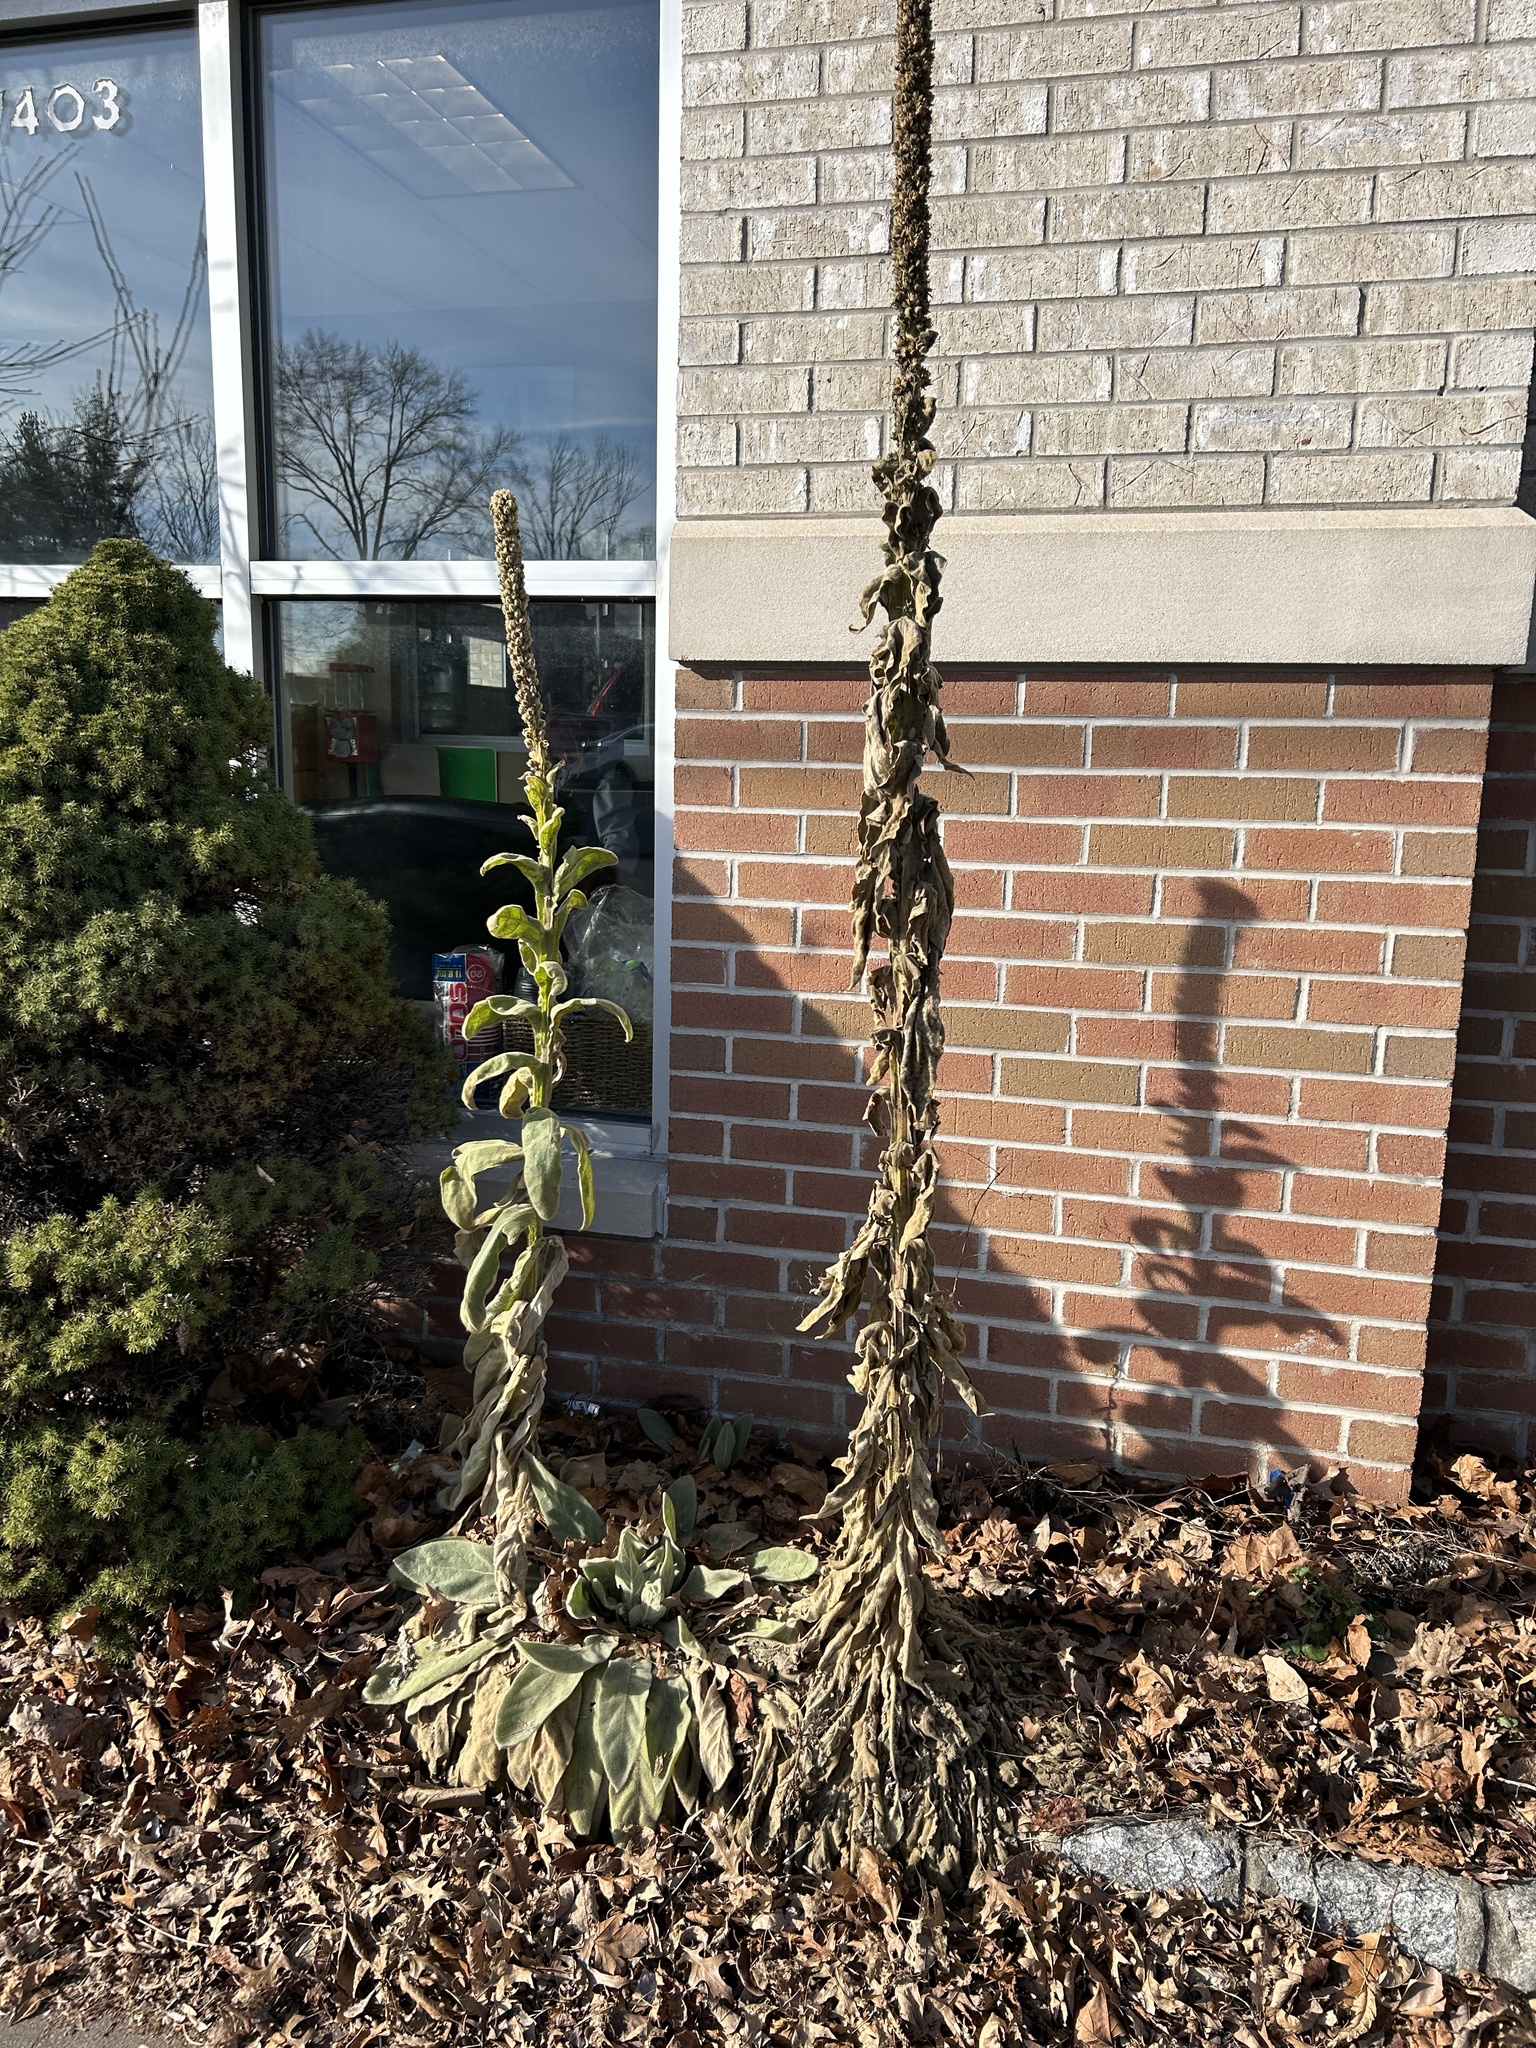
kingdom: Plantae
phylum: Tracheophyta
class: Magnoliopsida
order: Lamiales
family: Scrophulariaceae
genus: Verbascum
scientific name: Verbascum thapsus
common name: Common mullein
